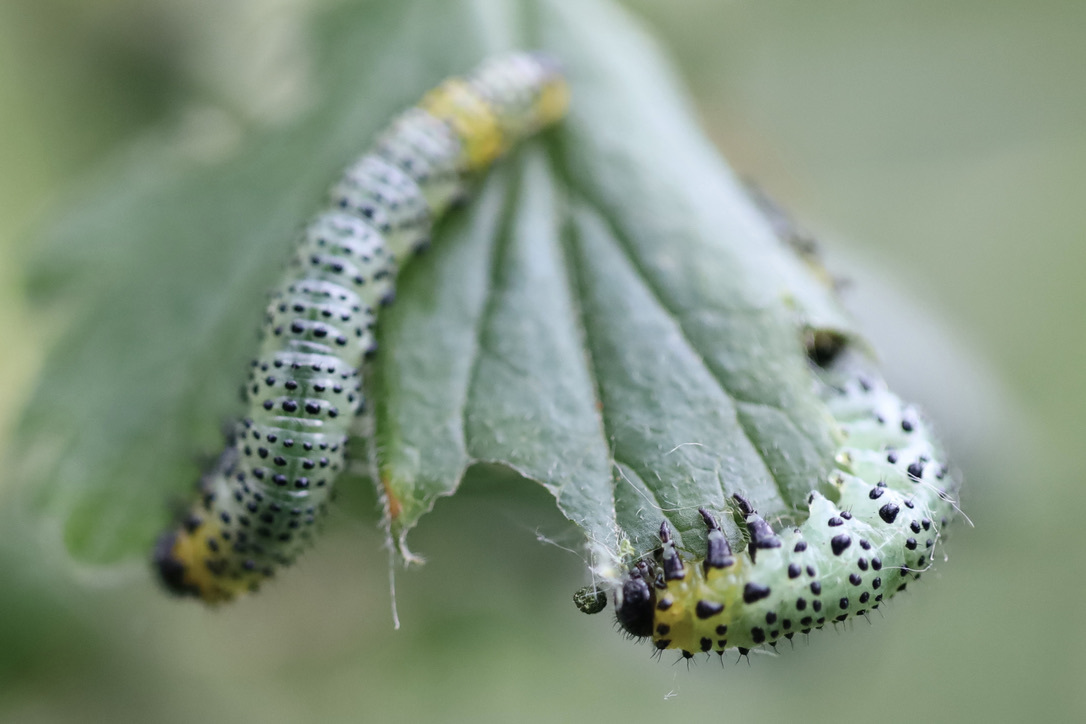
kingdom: Animalia
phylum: Arthropoda
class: Insecta
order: Hymenoptera
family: Tenthredinidae
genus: Nematus
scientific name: Nematus ribesii
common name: Imported currantworm
